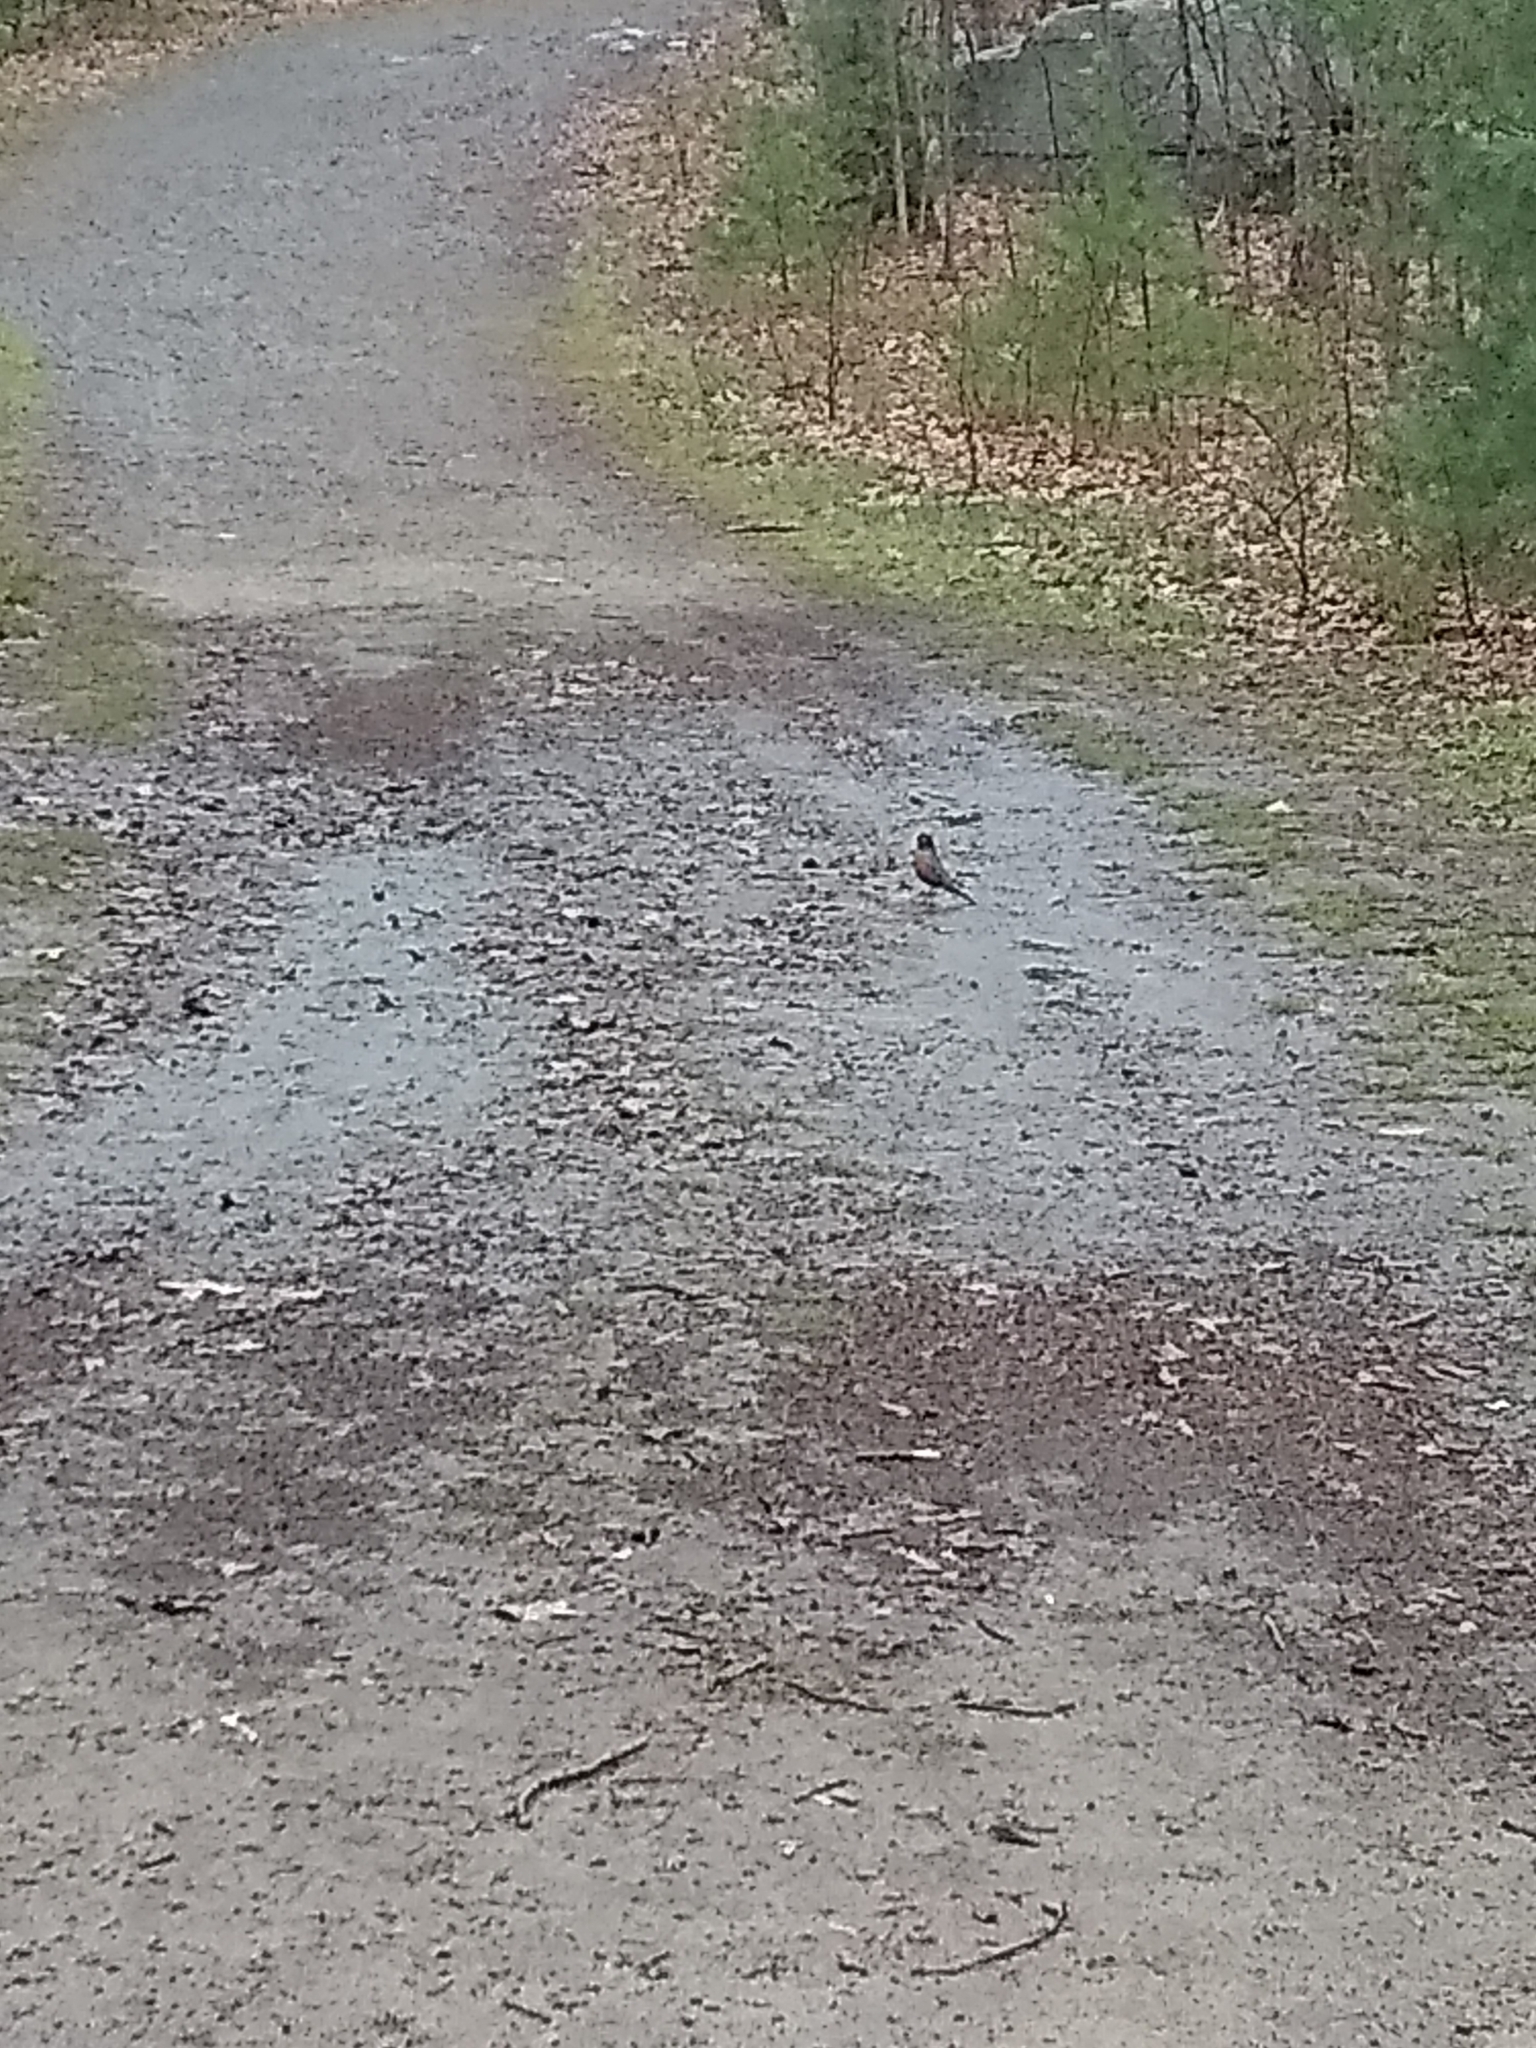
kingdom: Animalia
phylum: Chordata
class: Aves
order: Passeriformes
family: Turdidae
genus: Turdus
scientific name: Turdus migratorius
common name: American robin
